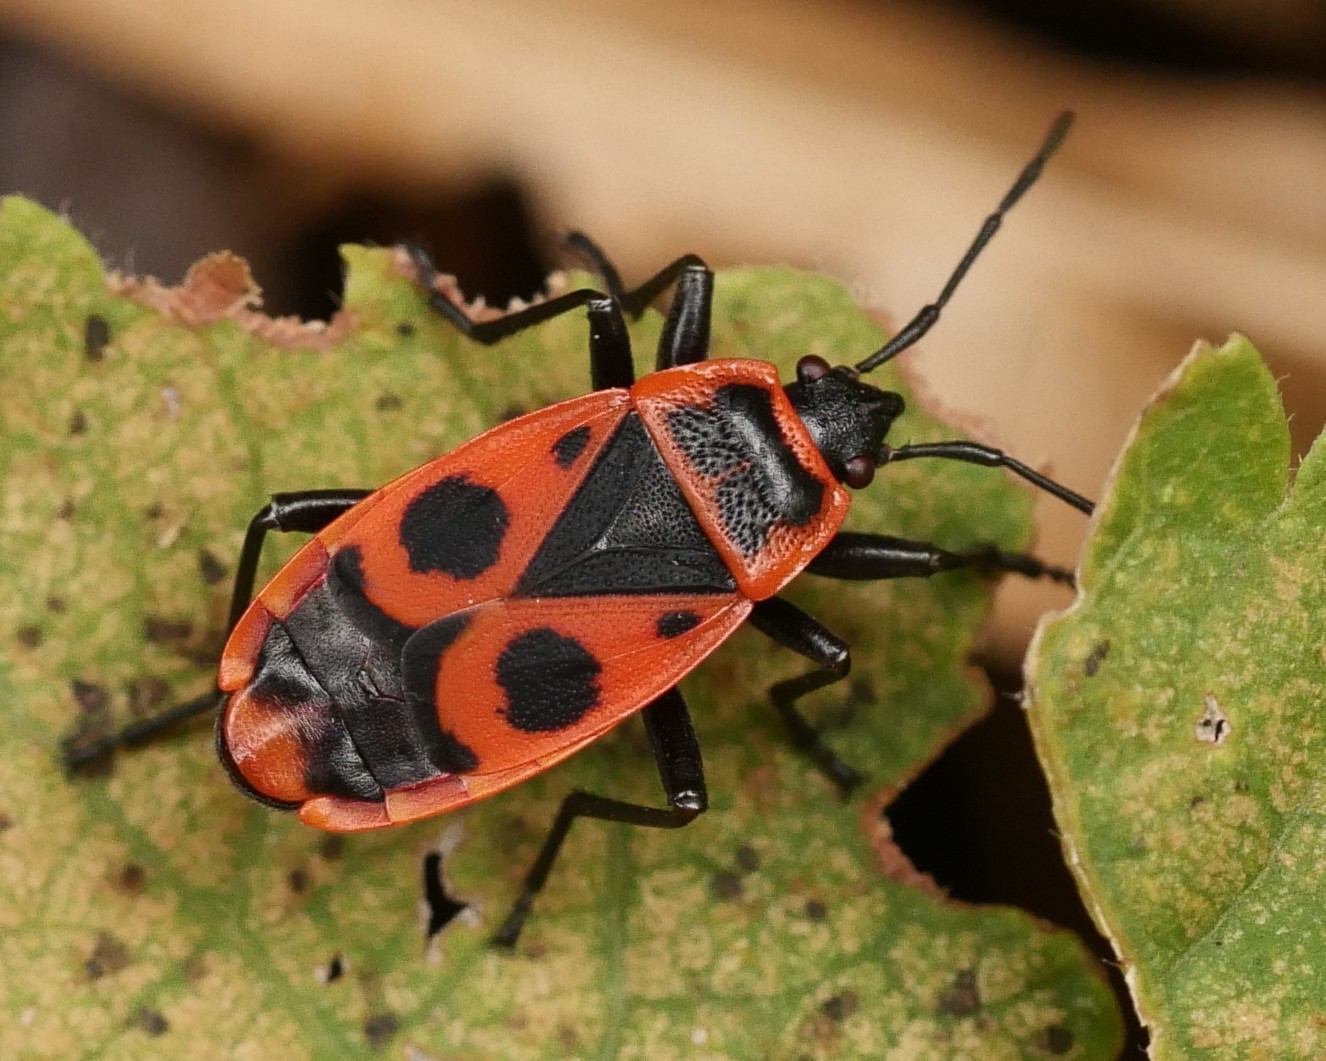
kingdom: Animalia
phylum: Arthropoda
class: Insecta
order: Hemiptera
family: Pyrrhocoridae
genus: Pyrrhocoris
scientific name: Pyrrhocoris apterus
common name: Firebug
